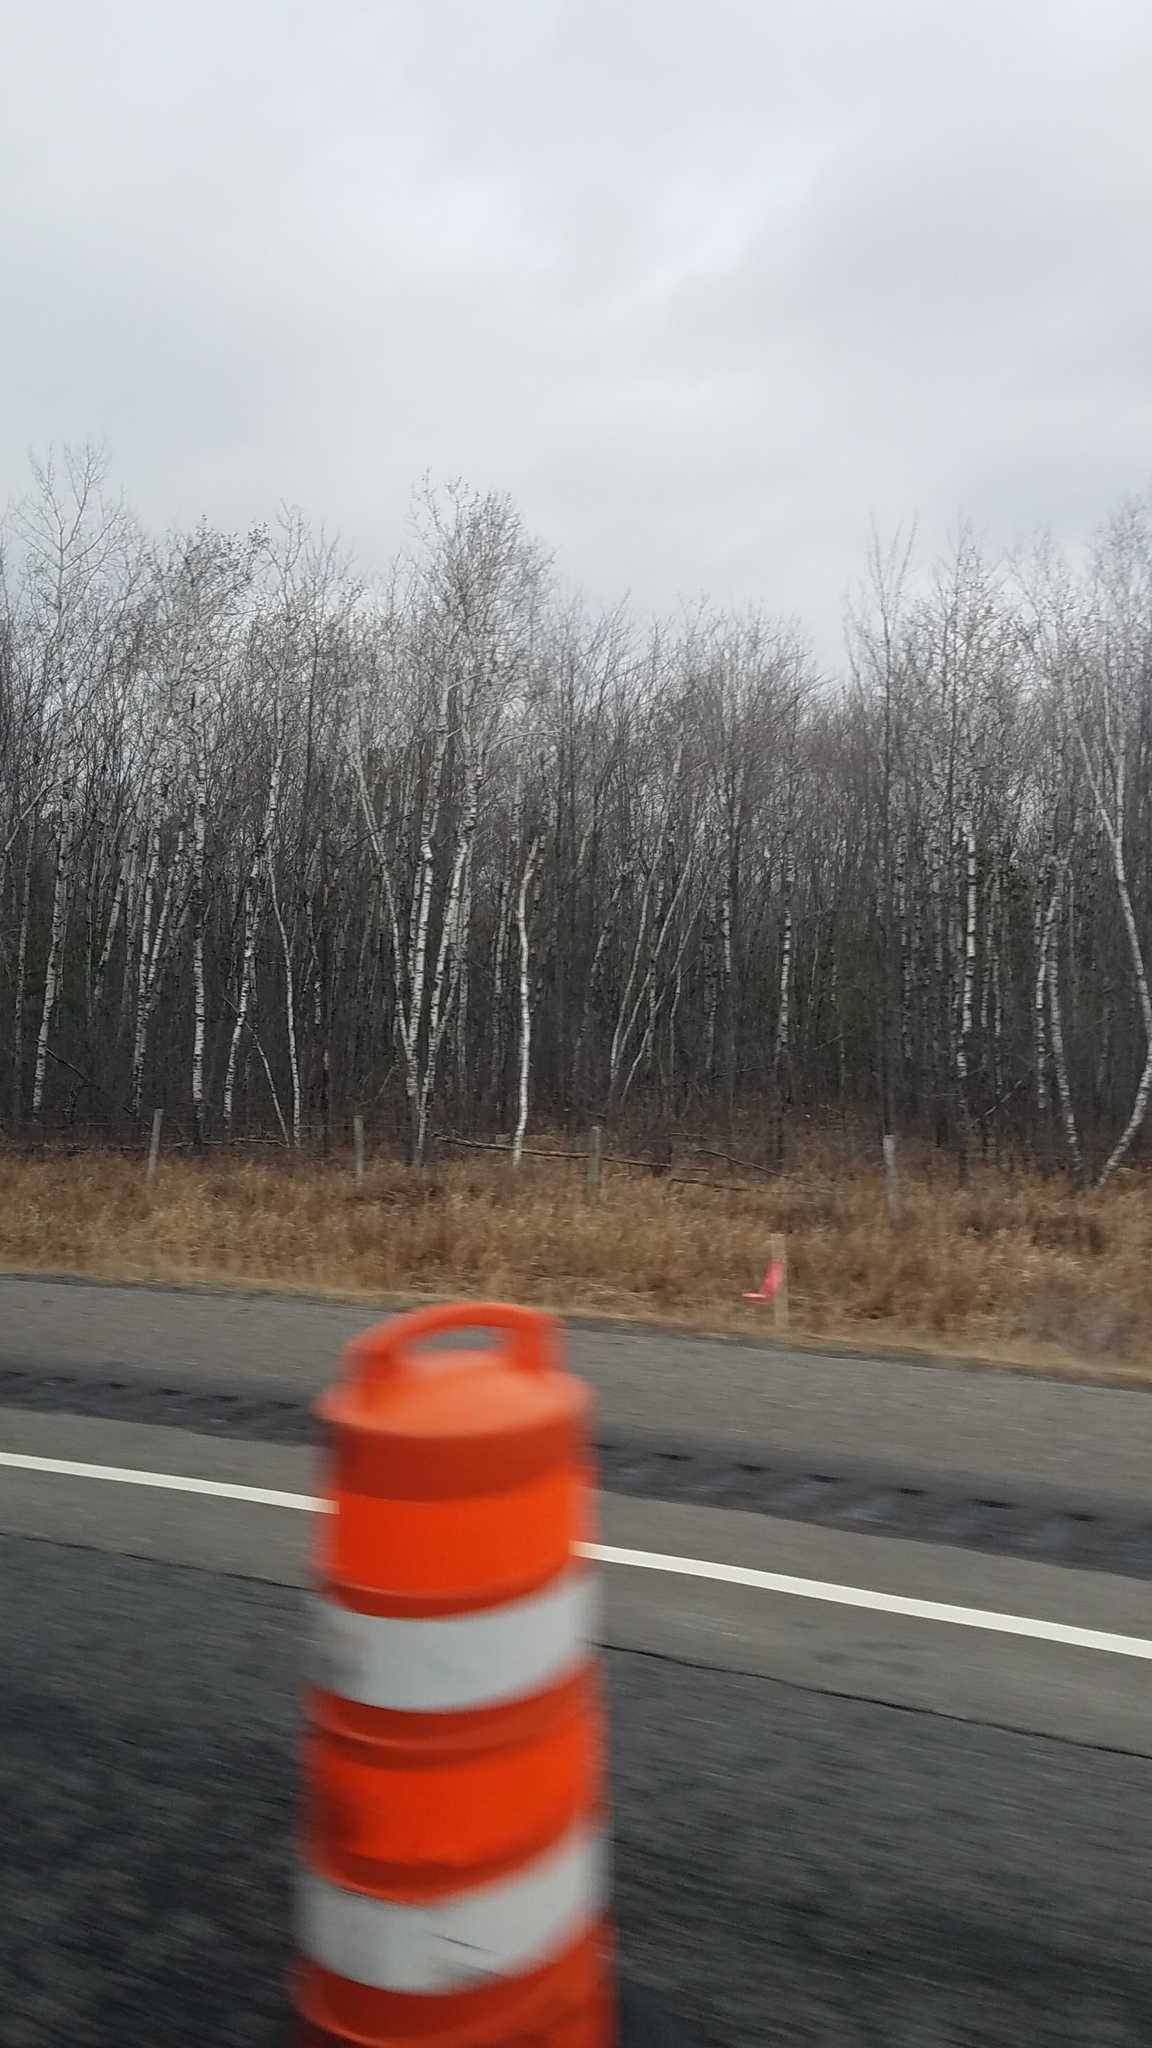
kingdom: Plantae
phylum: Tracheophyta
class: Magnoliopsida
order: Malpighiales
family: Salicaceae
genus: Populus
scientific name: Populus tremuloides
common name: Quaking aspen
